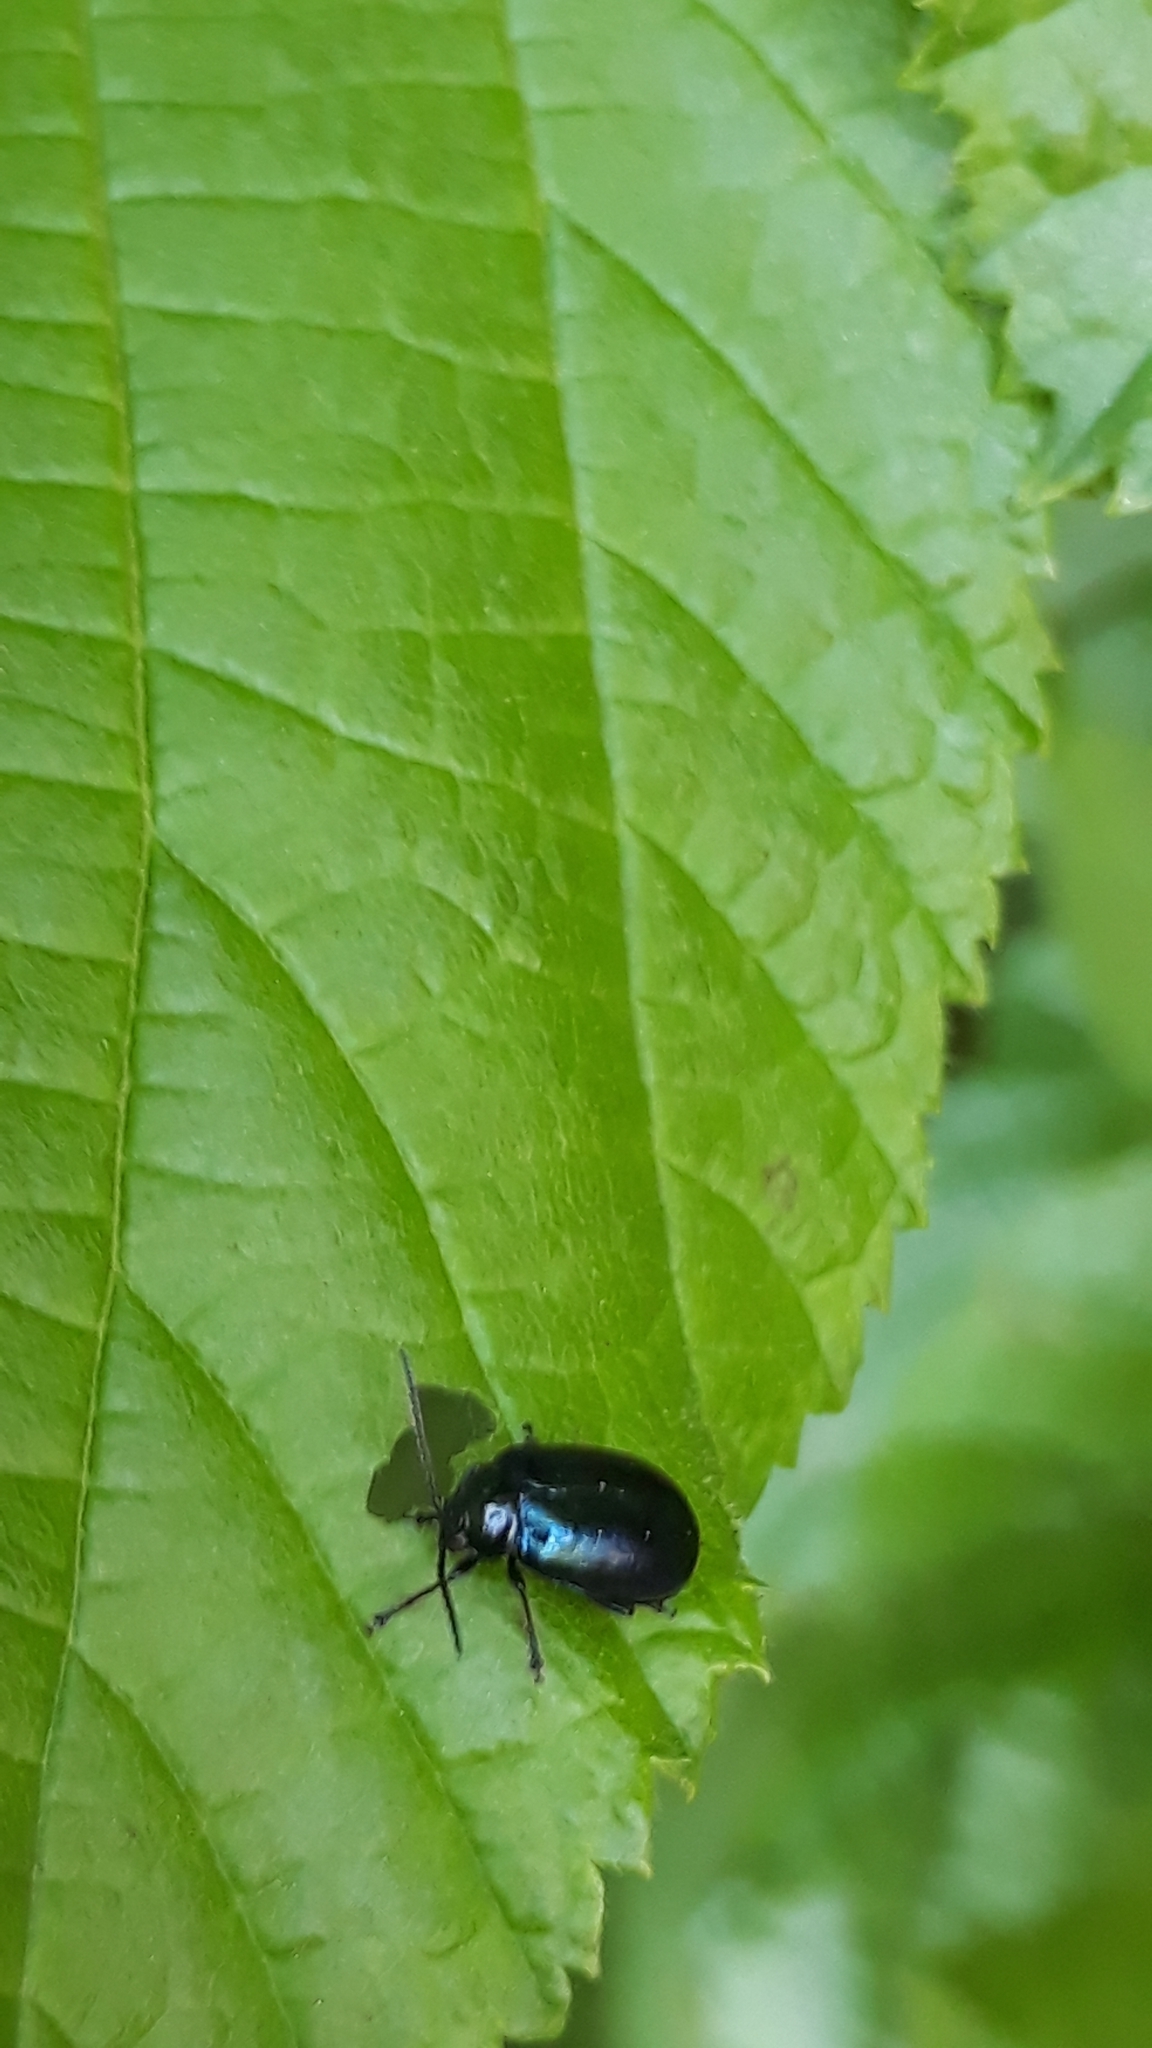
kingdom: Animalia
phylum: Arthropoda
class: Insecta
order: Coleoptera
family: Chrysomelidae
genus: Agelastica
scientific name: Agelastica alni
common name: Alder leaf beetle
